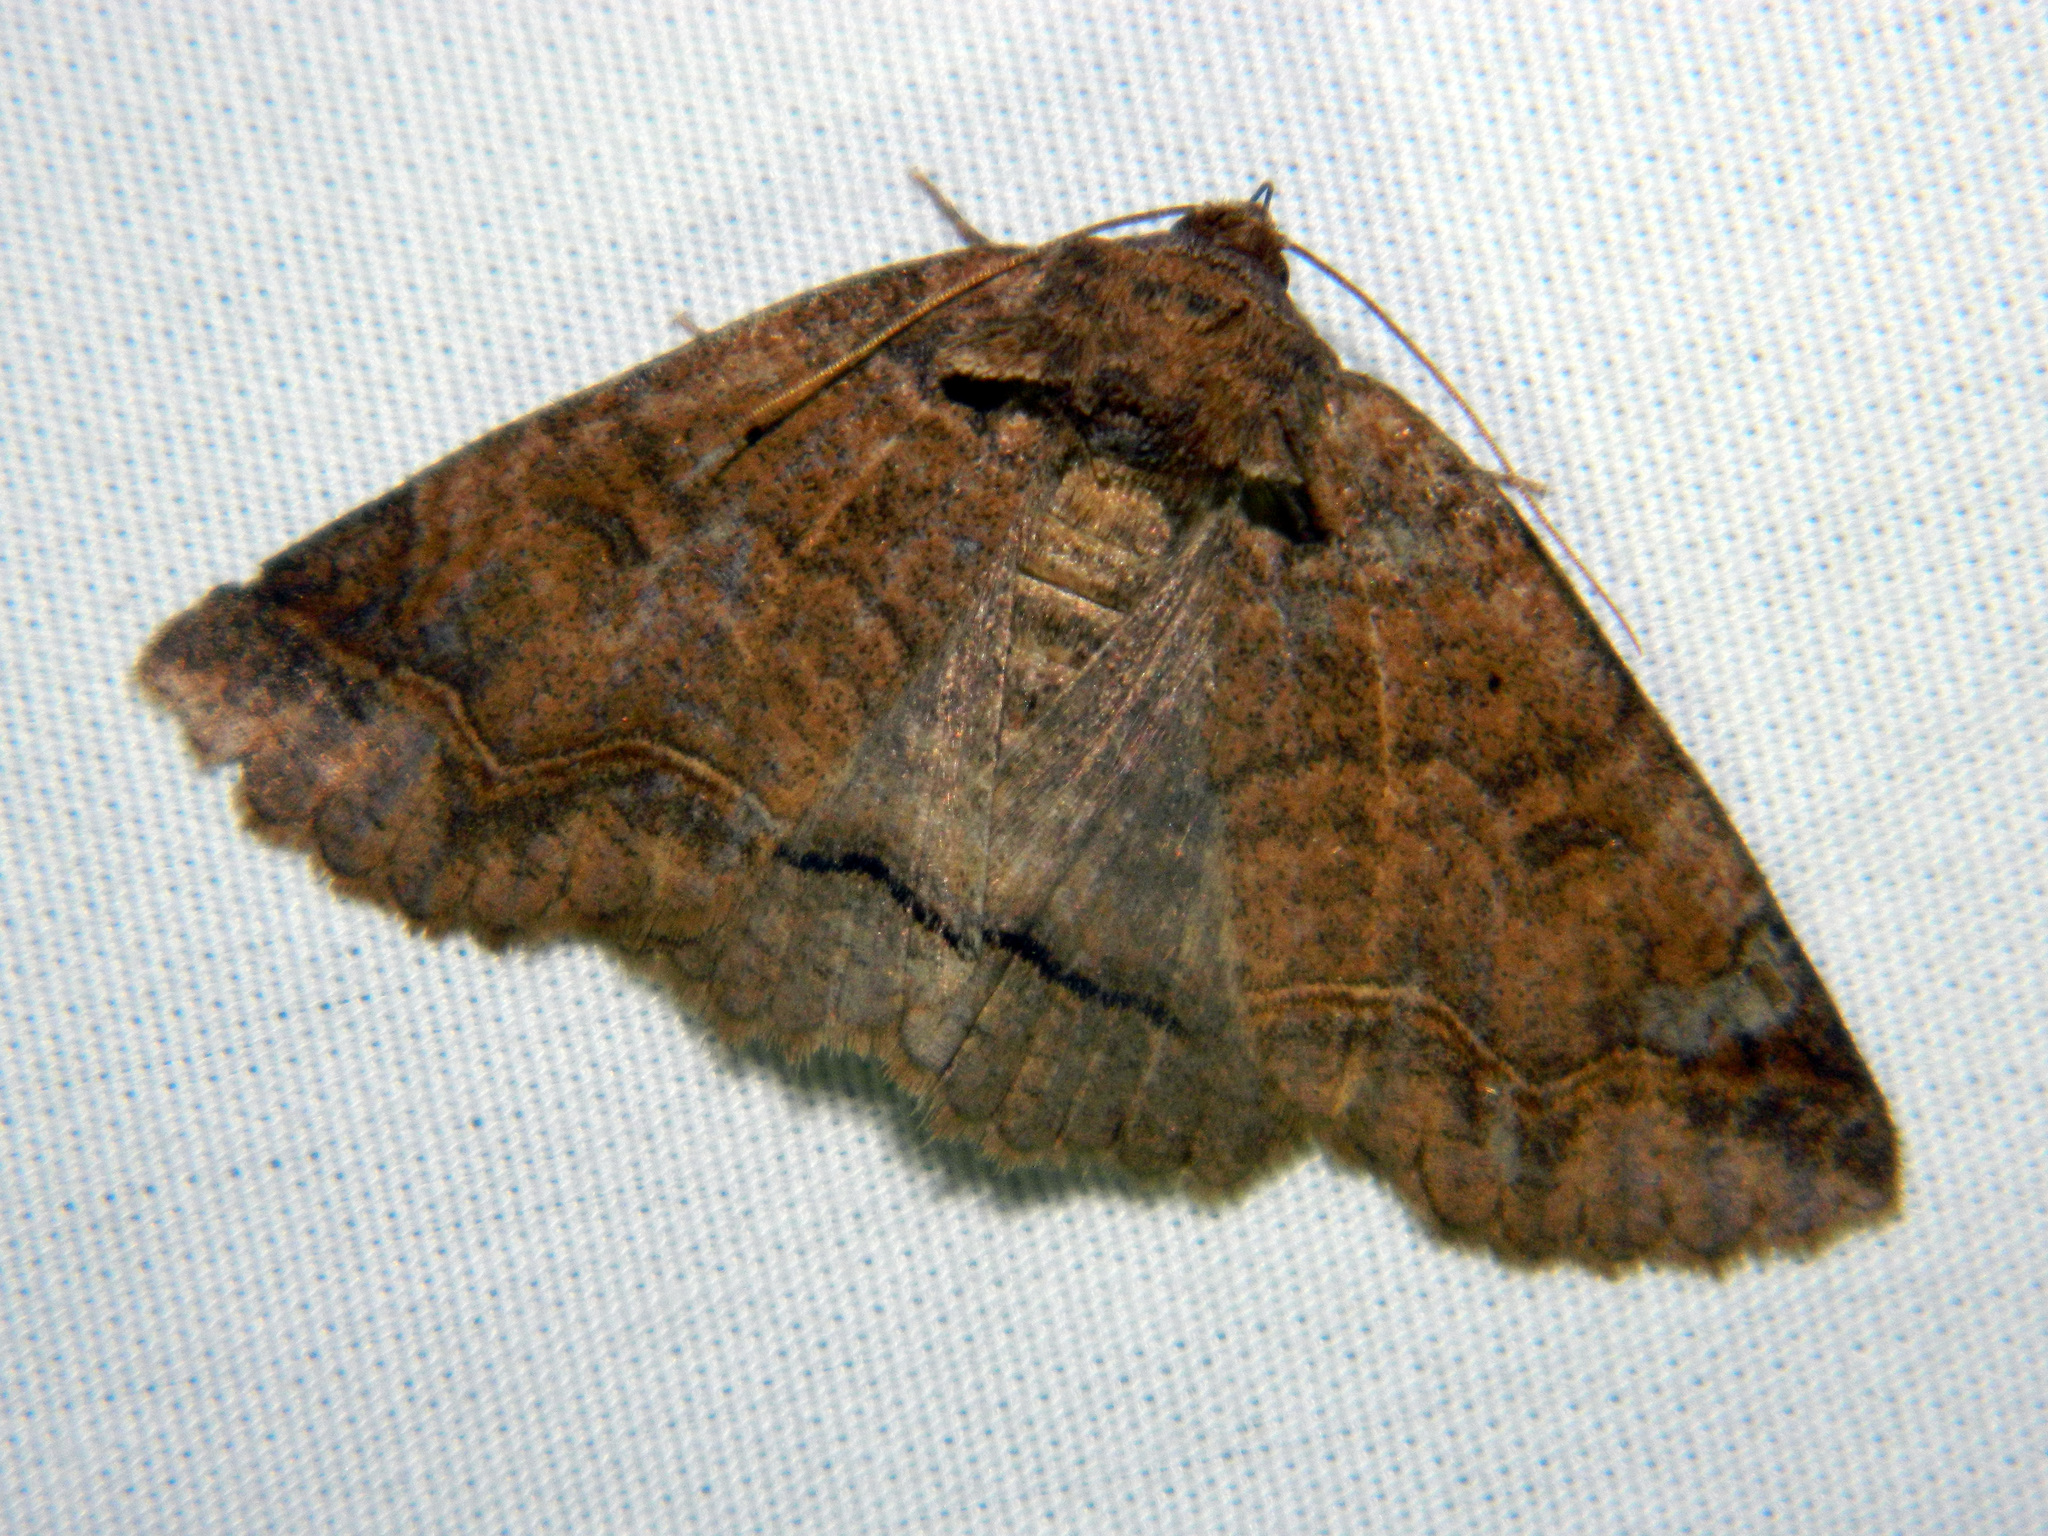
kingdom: Animalia
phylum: Arthropoda
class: Insecta
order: Lepidoptera
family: Erebidae
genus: Zale
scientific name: Zale unilineata
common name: One-lined zale moth
